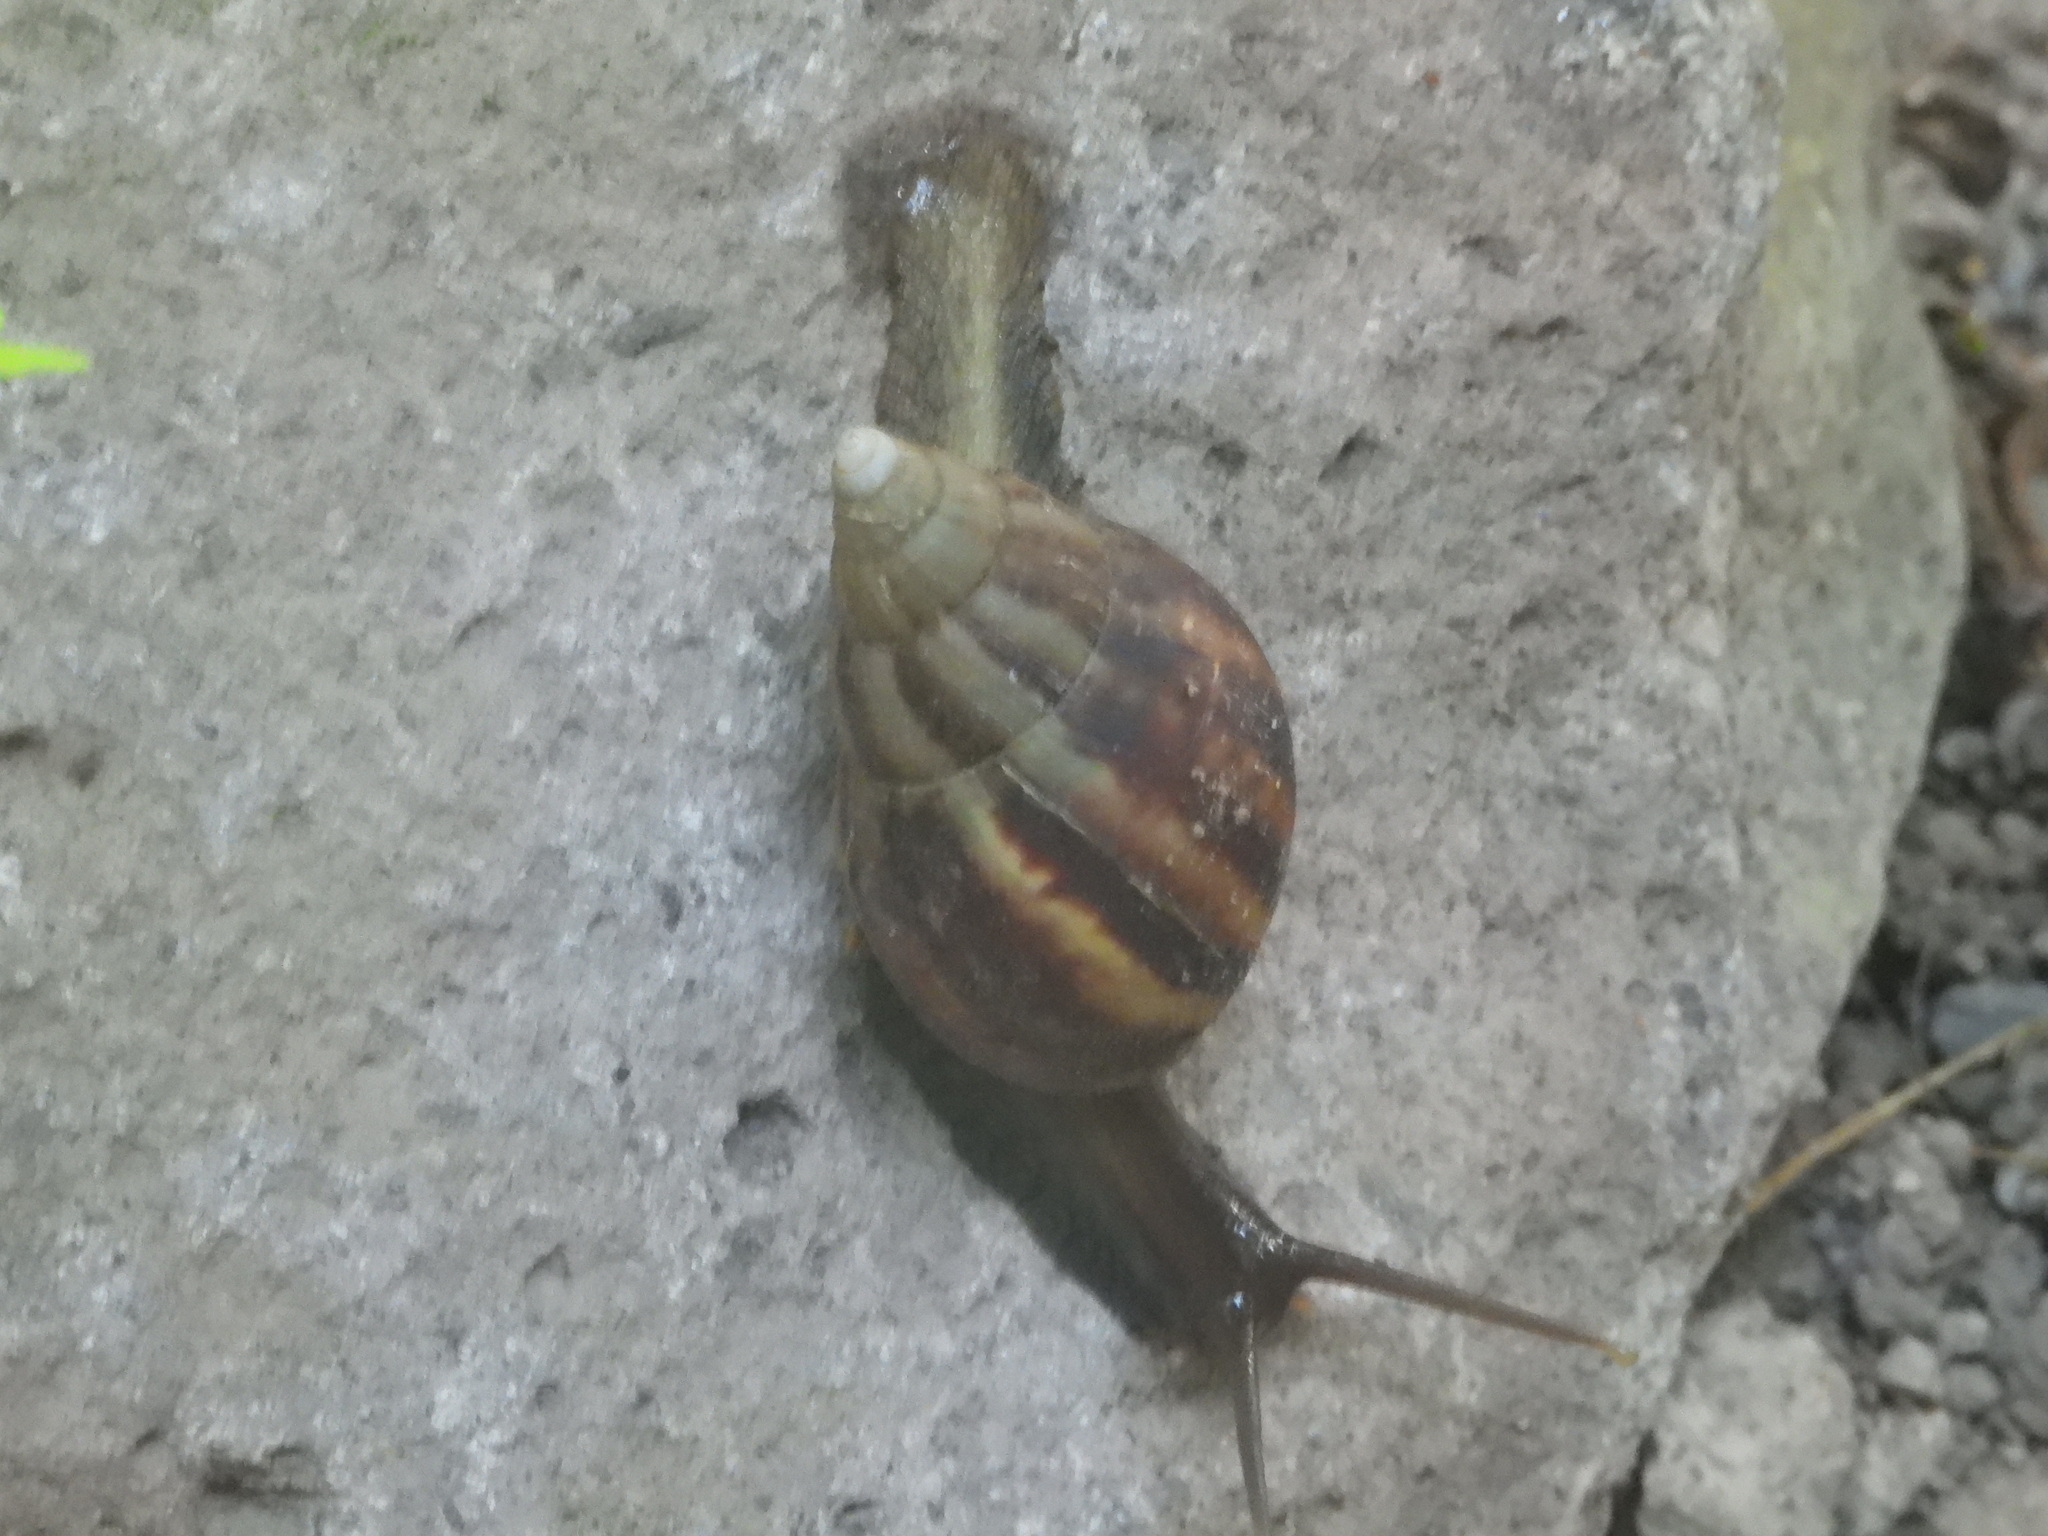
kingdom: Animalia
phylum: Mollusca
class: Gastropoda
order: Stylommatophora
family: Achatinidae
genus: Lissachatina
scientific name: Lissachatina fulica
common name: Giant african snail
